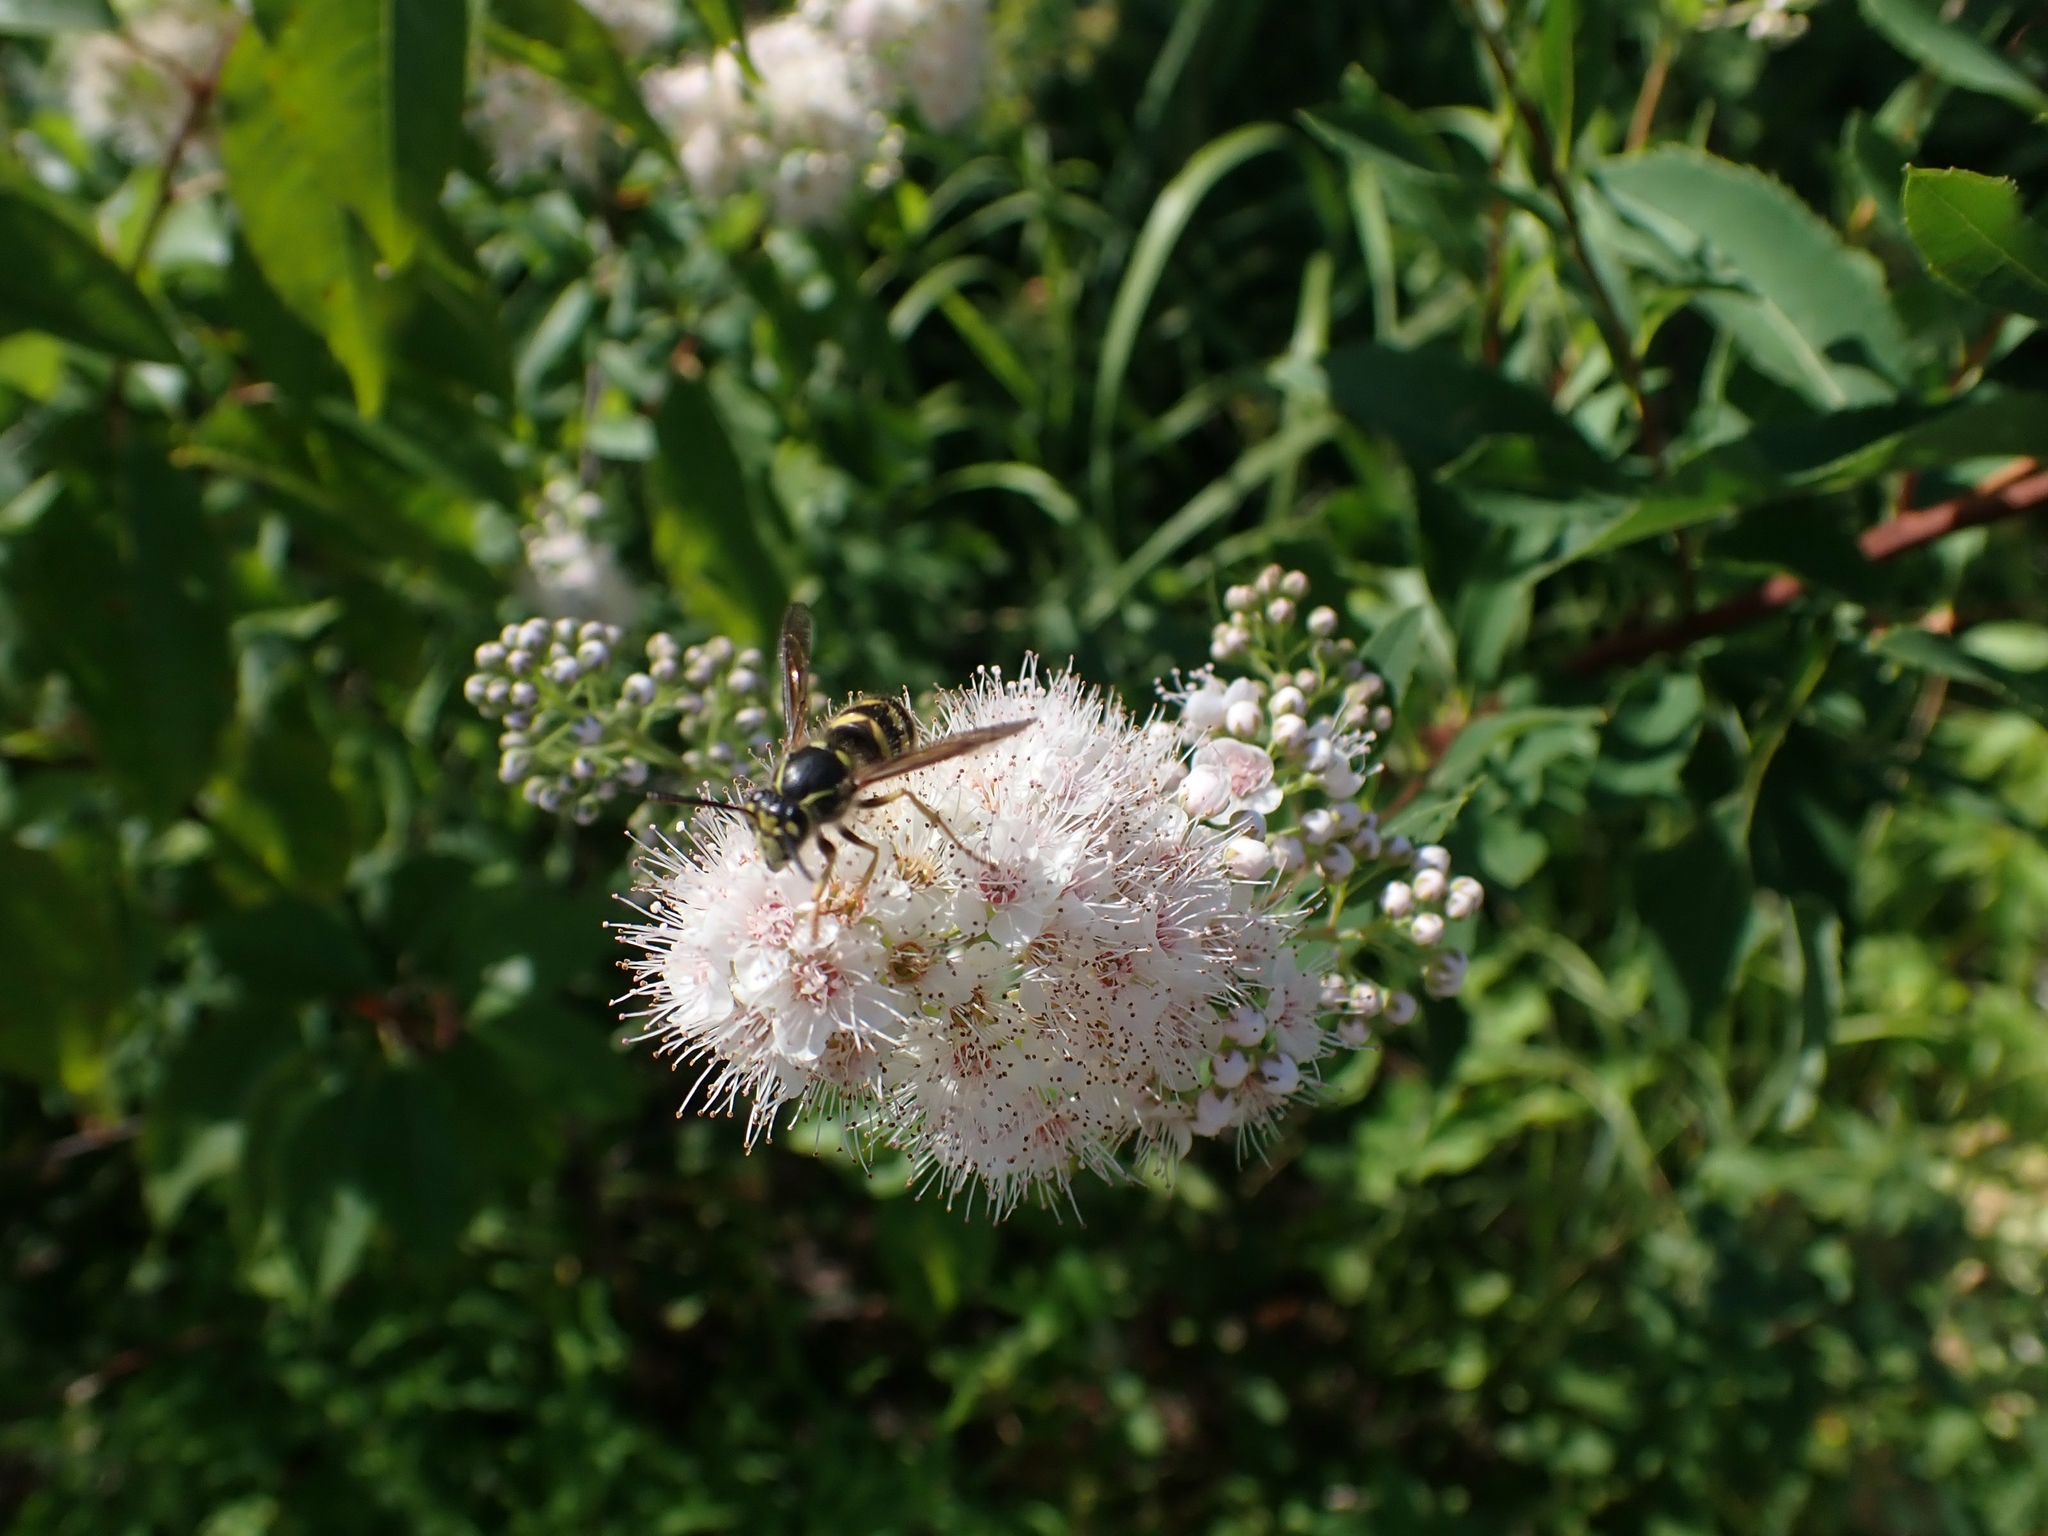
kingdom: Plantae
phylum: Tracheophyta
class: Magnoliopsida
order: Rosales
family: Rosaceae
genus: Spiraea
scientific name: Spiraea alba
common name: Pale bridewort
